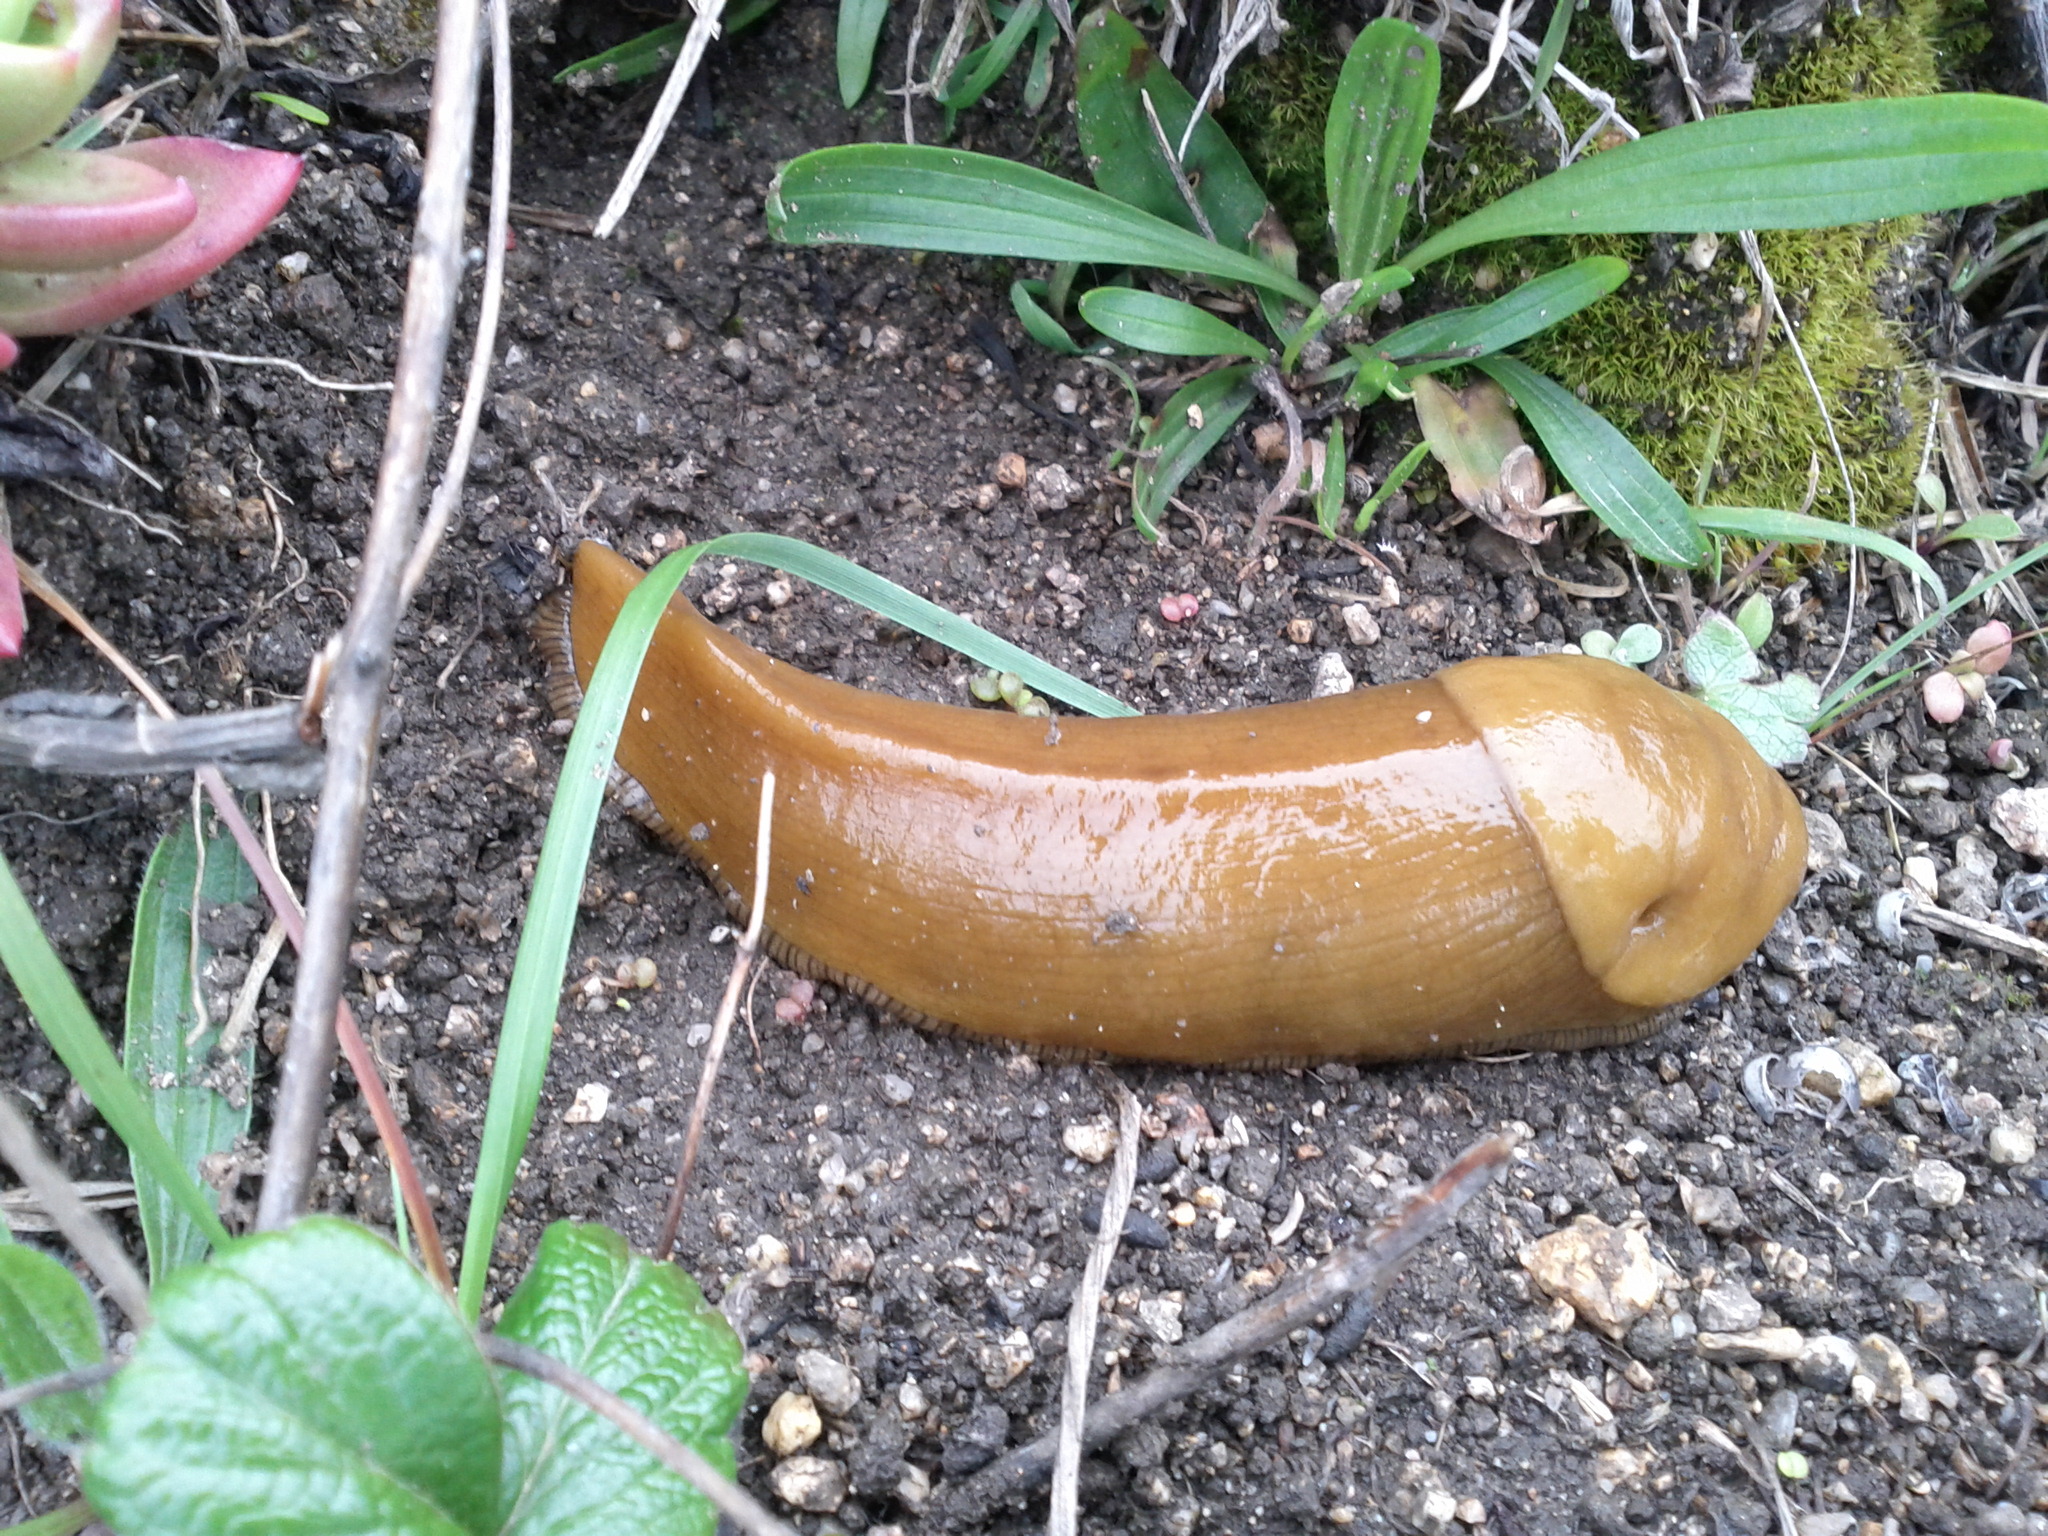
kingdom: Animalia
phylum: Mollusca
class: Gastropoda
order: Stylommatophora
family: Ariolimacidae
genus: Ariolimax
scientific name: Ariolimax californicus
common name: California banana slug
